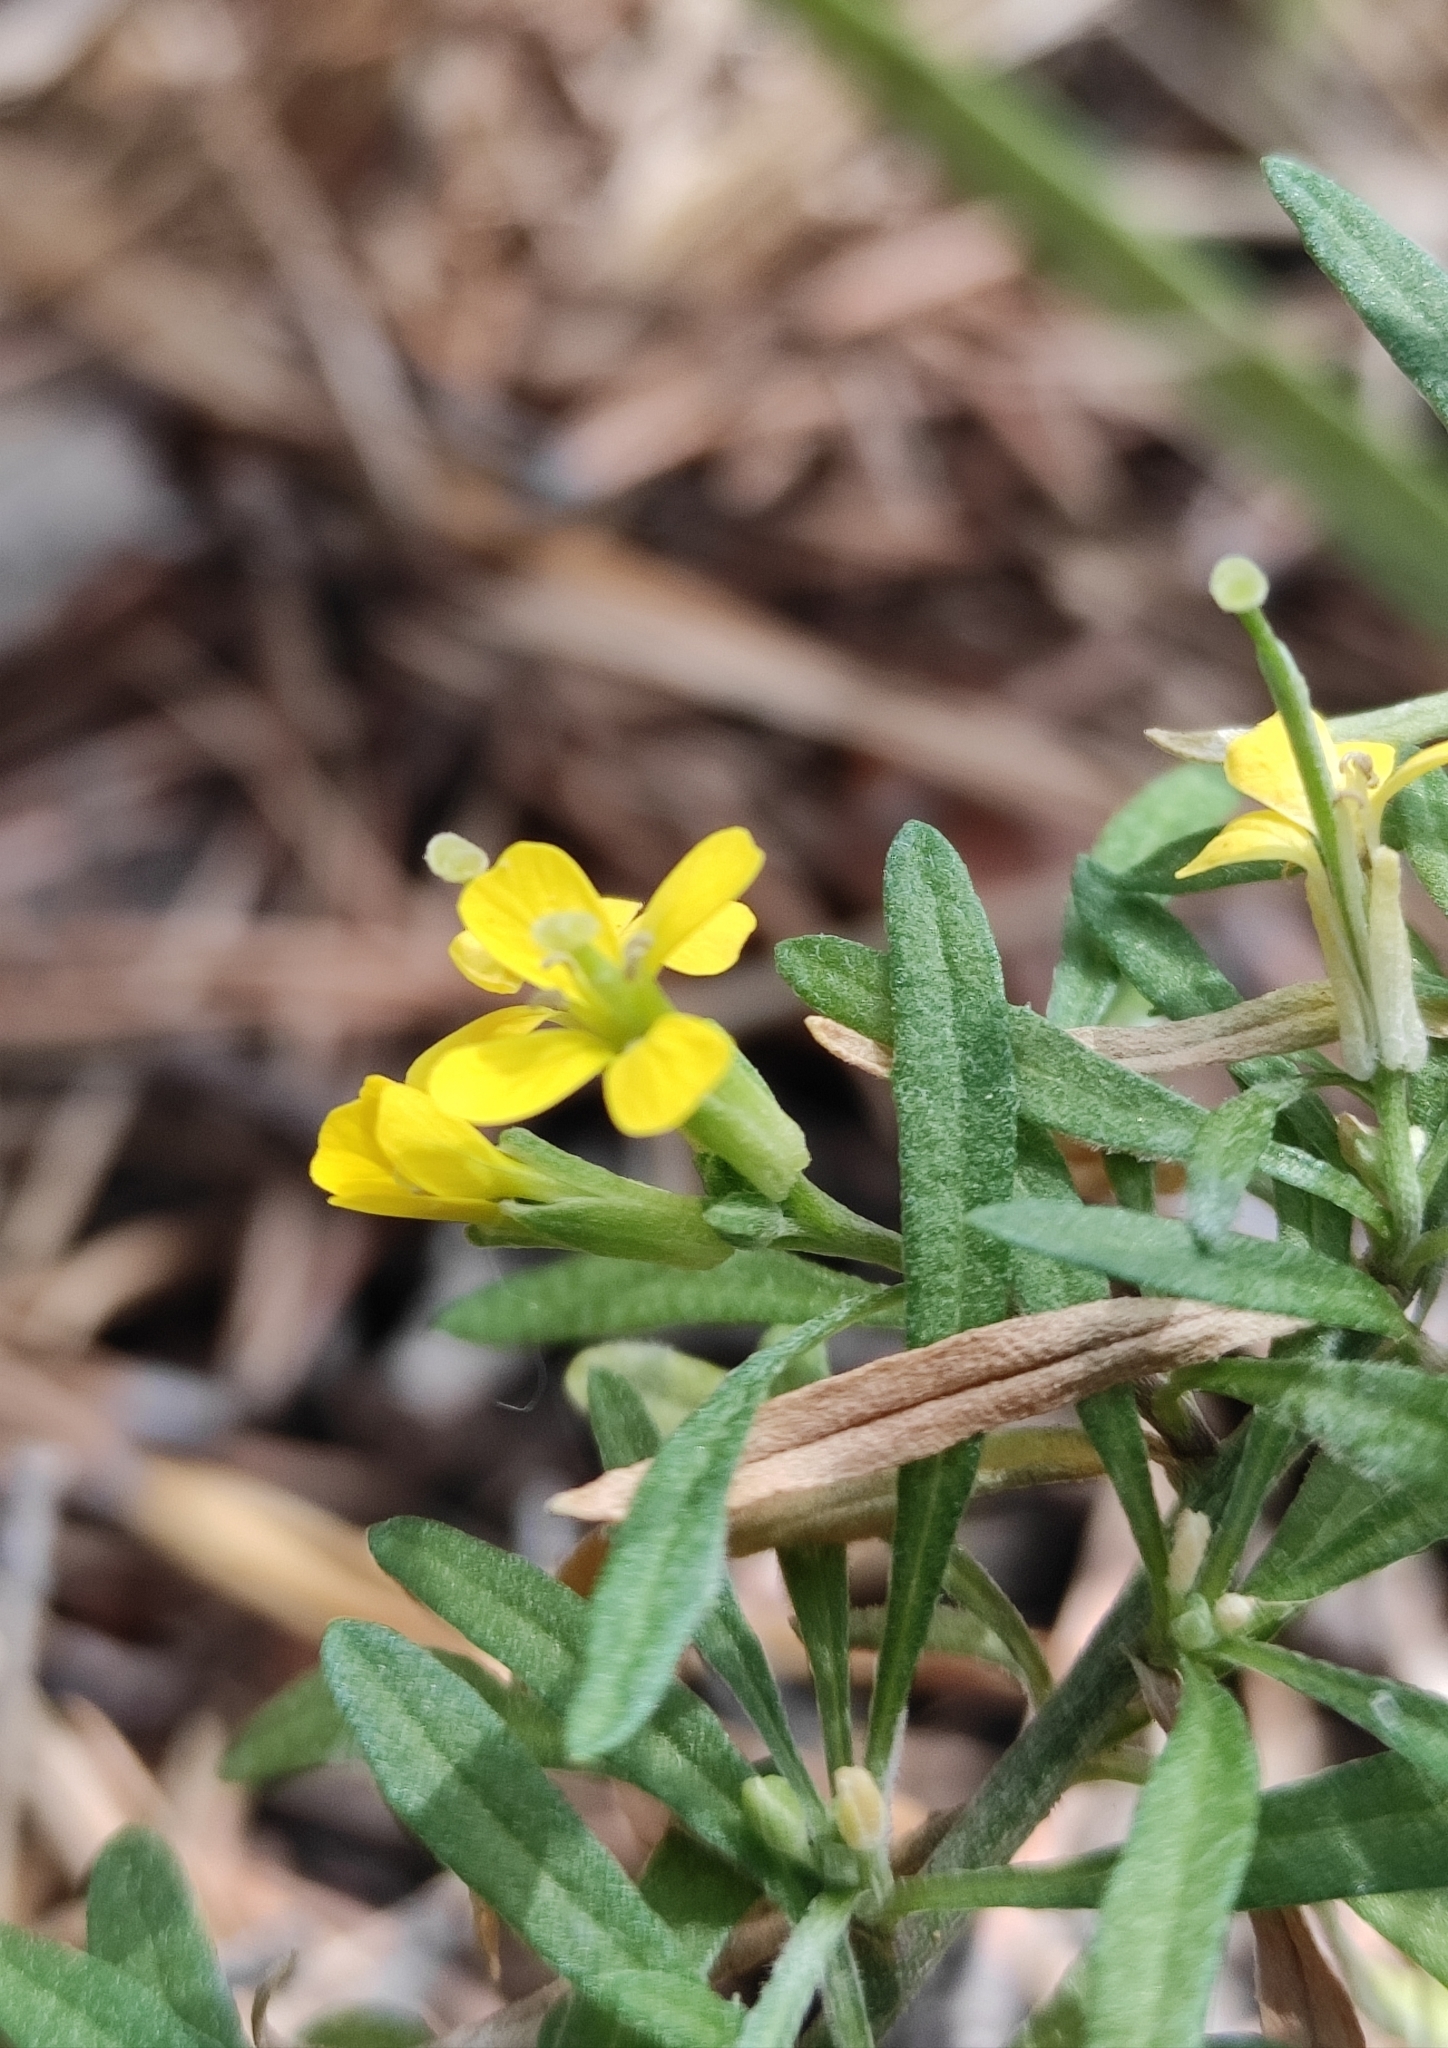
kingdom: Plantae
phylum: Tracheophyta
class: Magnoliopsida
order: Brassicales
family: Brassicaceae
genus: Erysimum
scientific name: Erysimum hieraciifolium
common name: European wallflower
